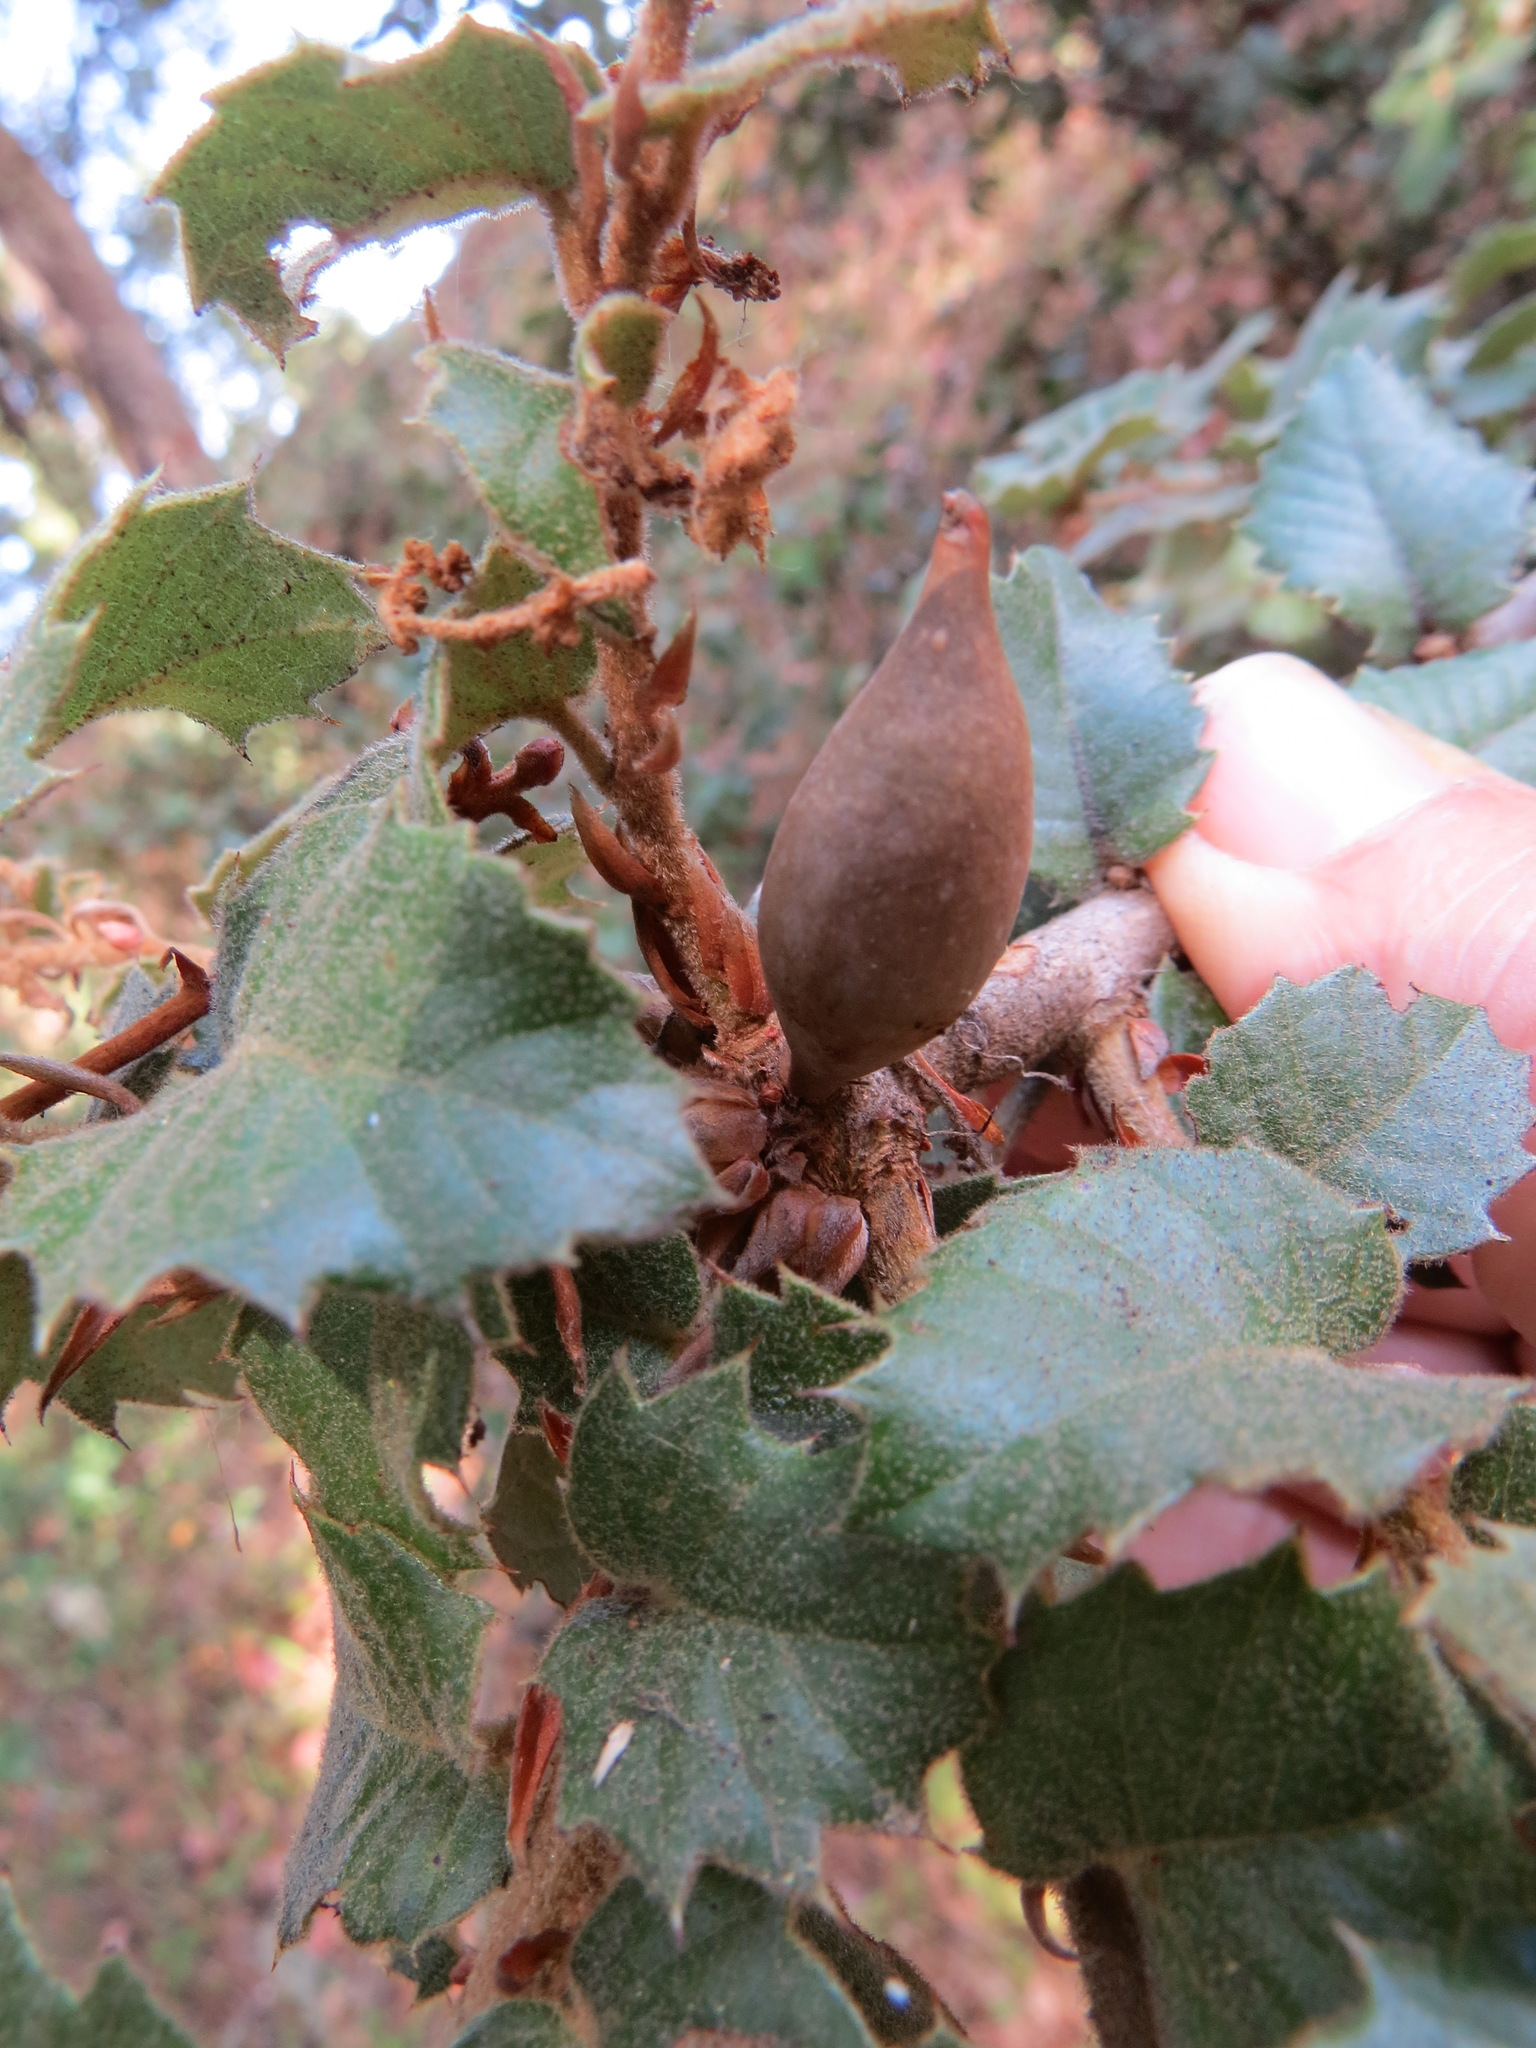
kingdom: Animalia
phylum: Arthropoda
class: Insecta
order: Hymenoptera
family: Cynipidae
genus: Heteroecus
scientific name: Heteroecus pacificus
